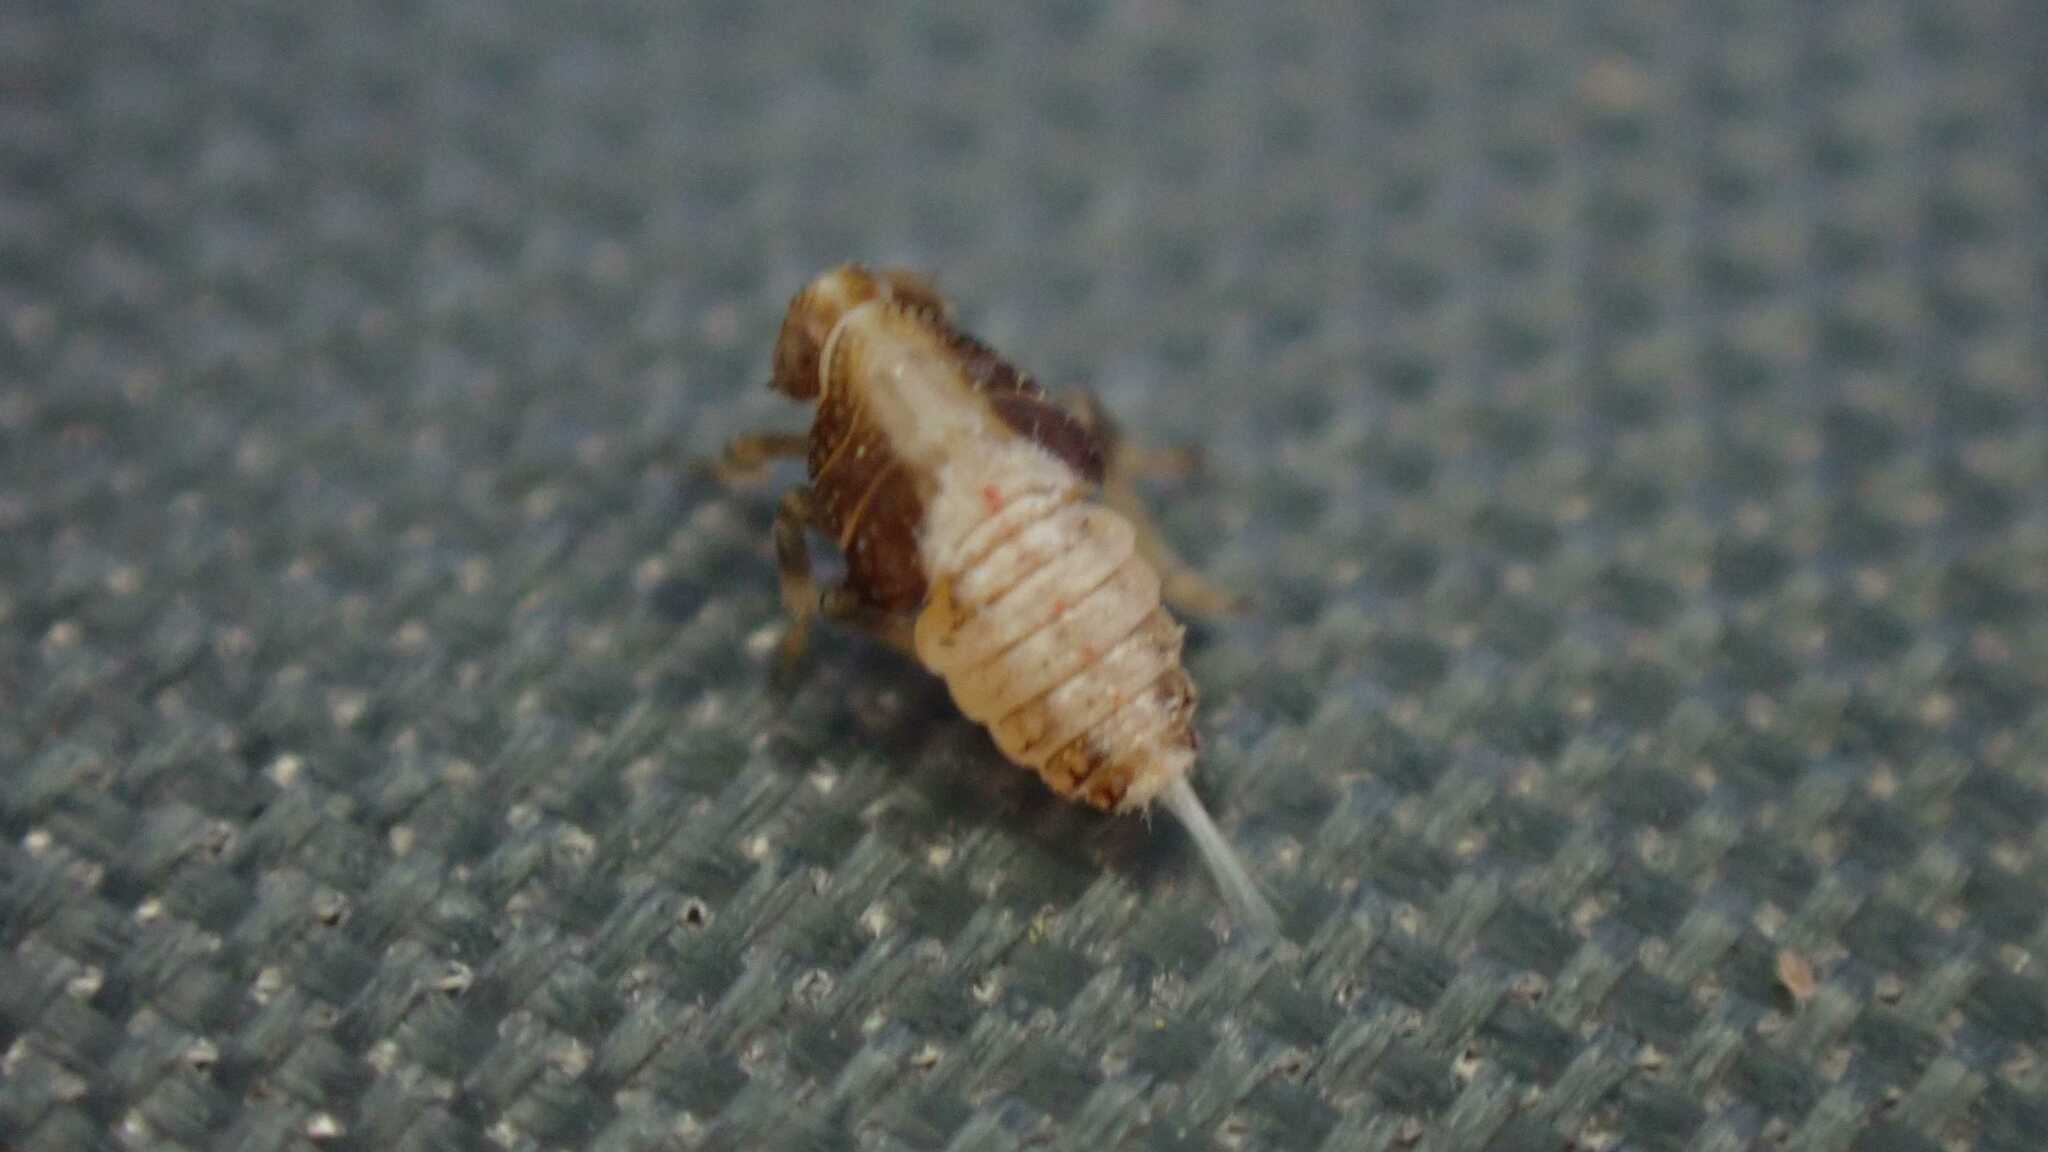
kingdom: Animalia
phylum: Arthropoda
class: Insecta
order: Hemiptera
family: Issidae
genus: Issus
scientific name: Issus
